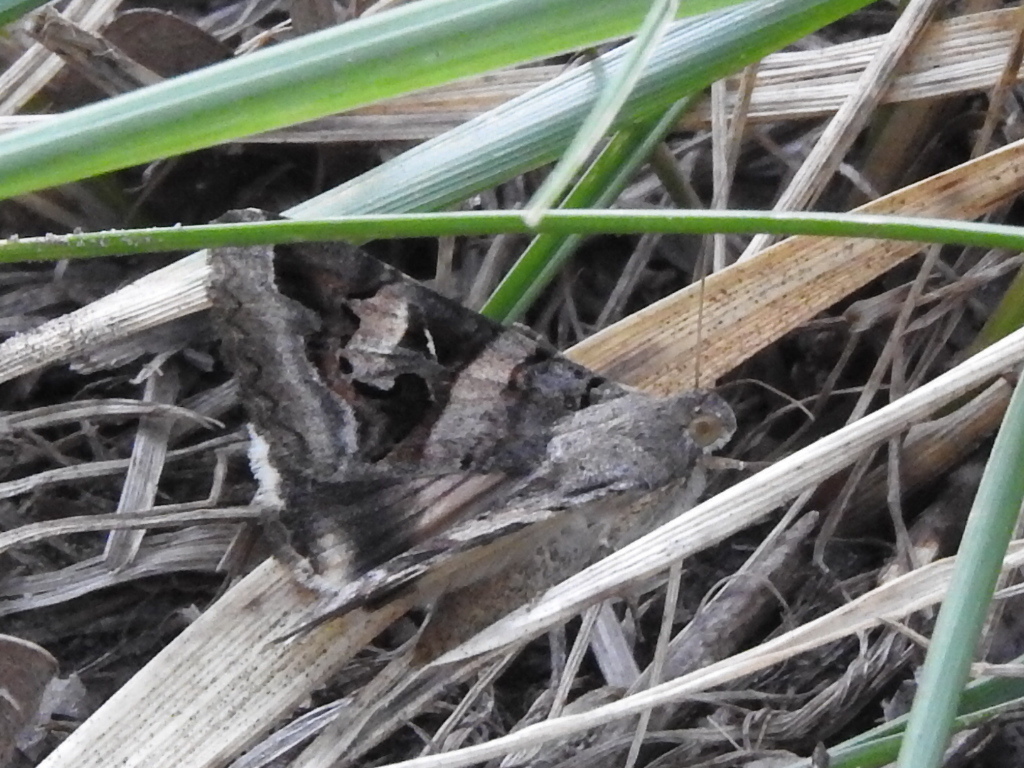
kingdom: Animalia
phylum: Arthropoda
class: Insecta
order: Lepidoptera
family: Erebidae
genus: Melipotis
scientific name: Melipotis indomita
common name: Moth
